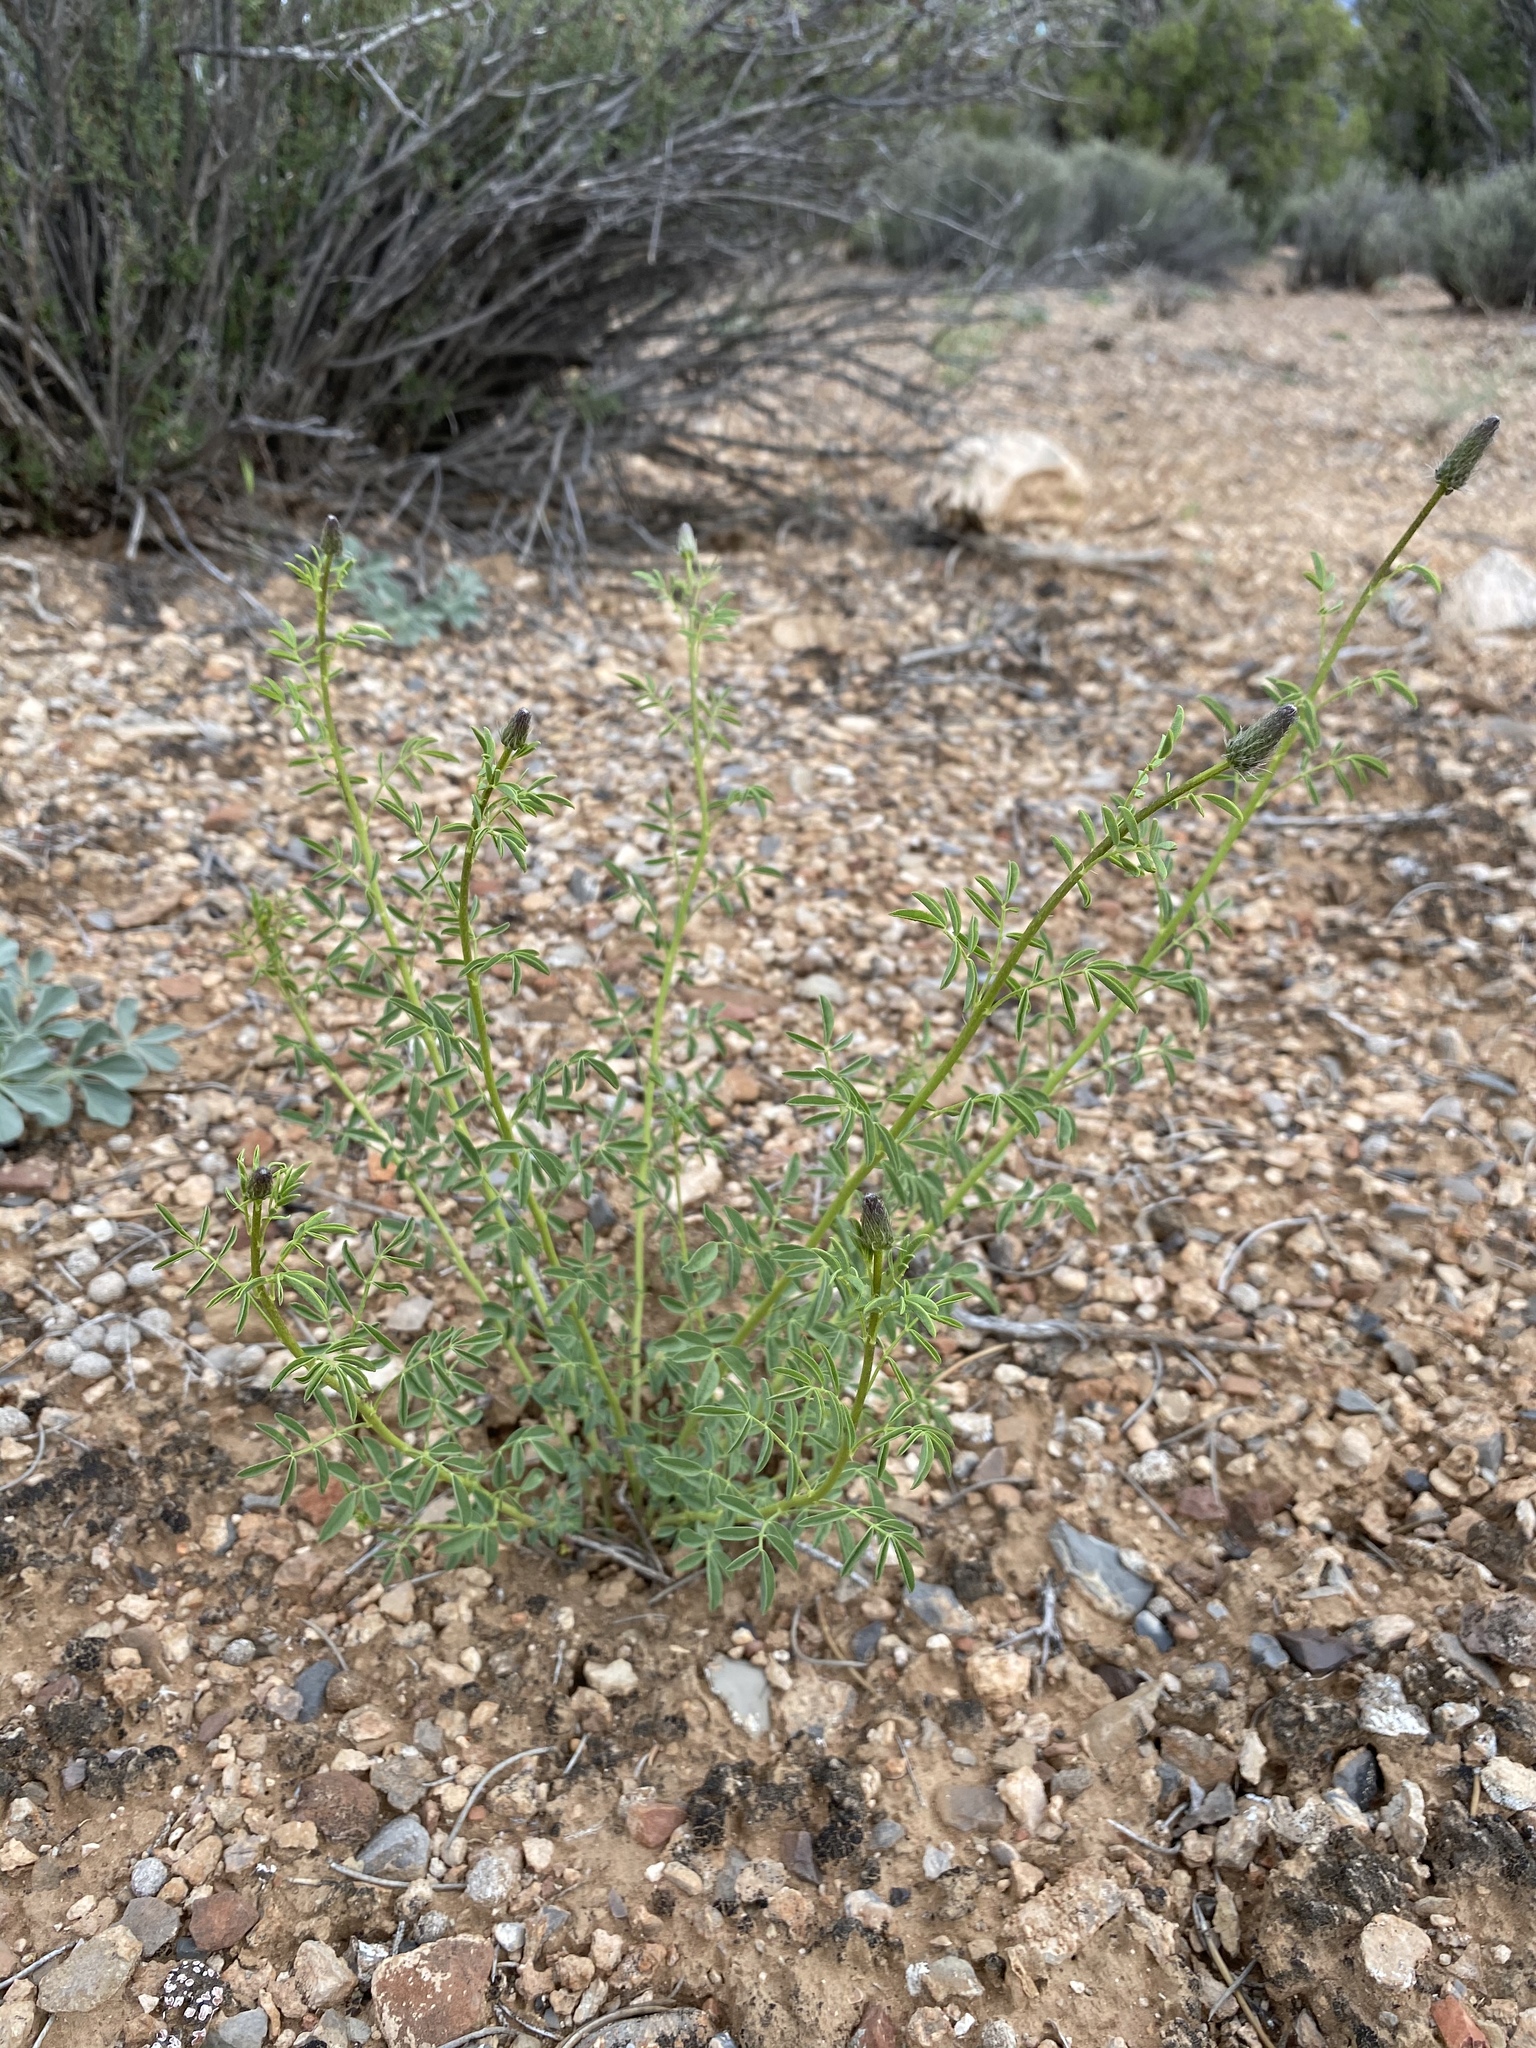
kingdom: Plantae
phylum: Tracheophyta
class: Magnoliopsida
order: Fabales
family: Fabaceae
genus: Dalea
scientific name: Dalea searlsiae
